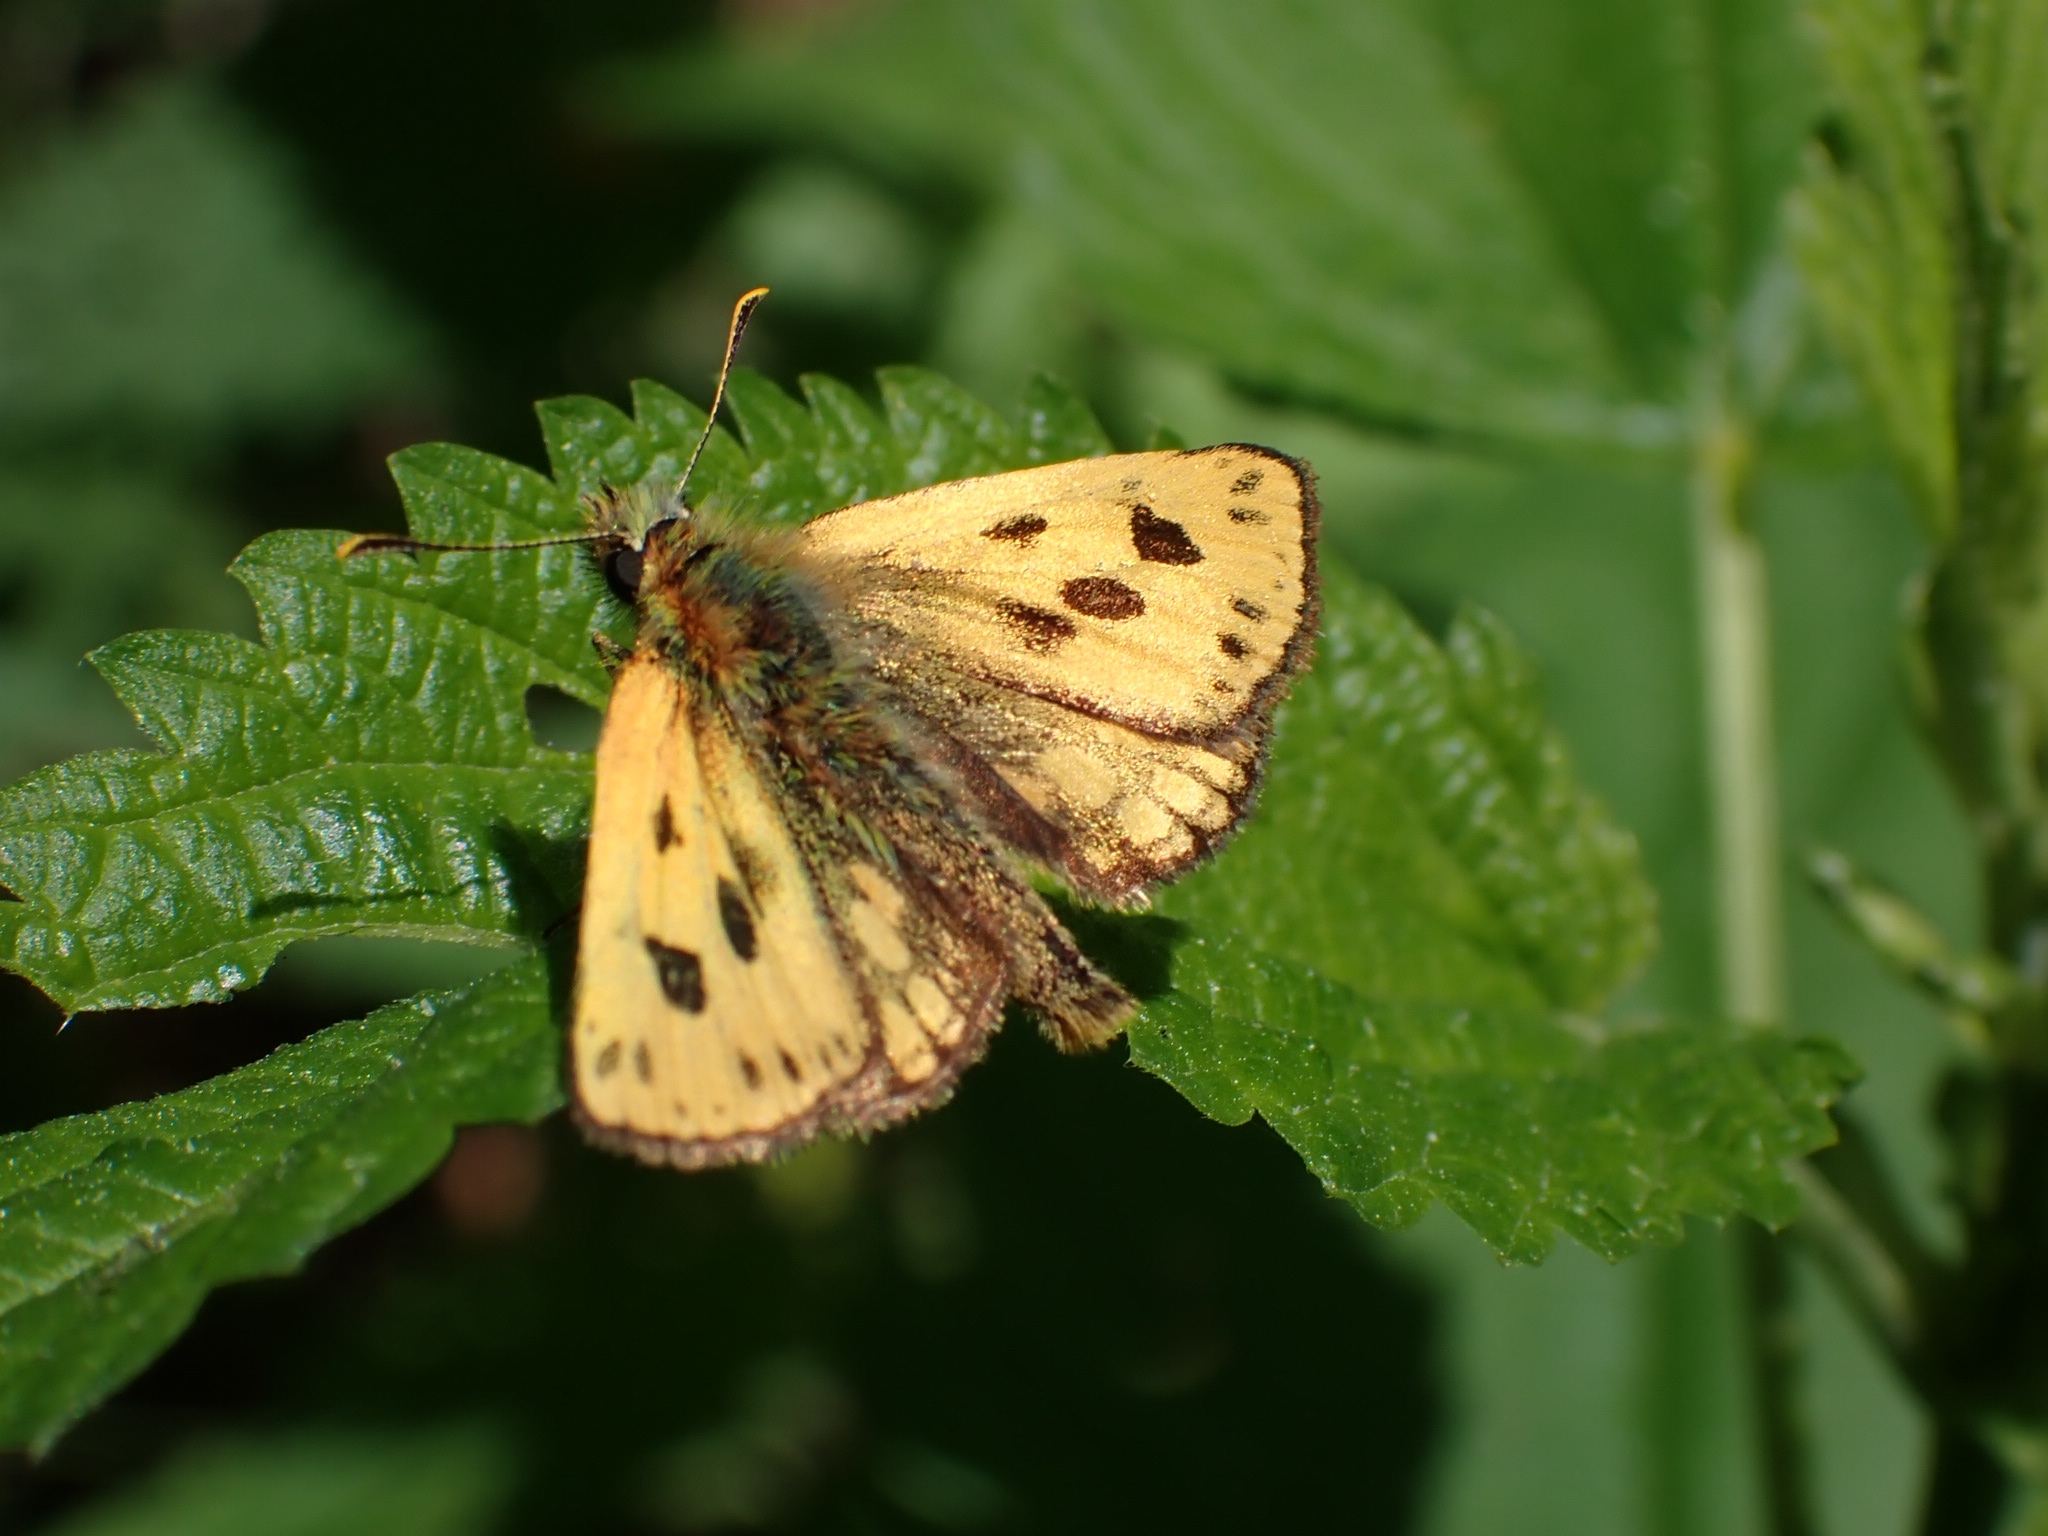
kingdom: Animalia
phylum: Arthropoda
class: Insecta
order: Lepidoptera
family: Hesperiidae
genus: Carterocephalus
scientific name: Carterocephalus silvicola
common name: Northern chequered skipper
